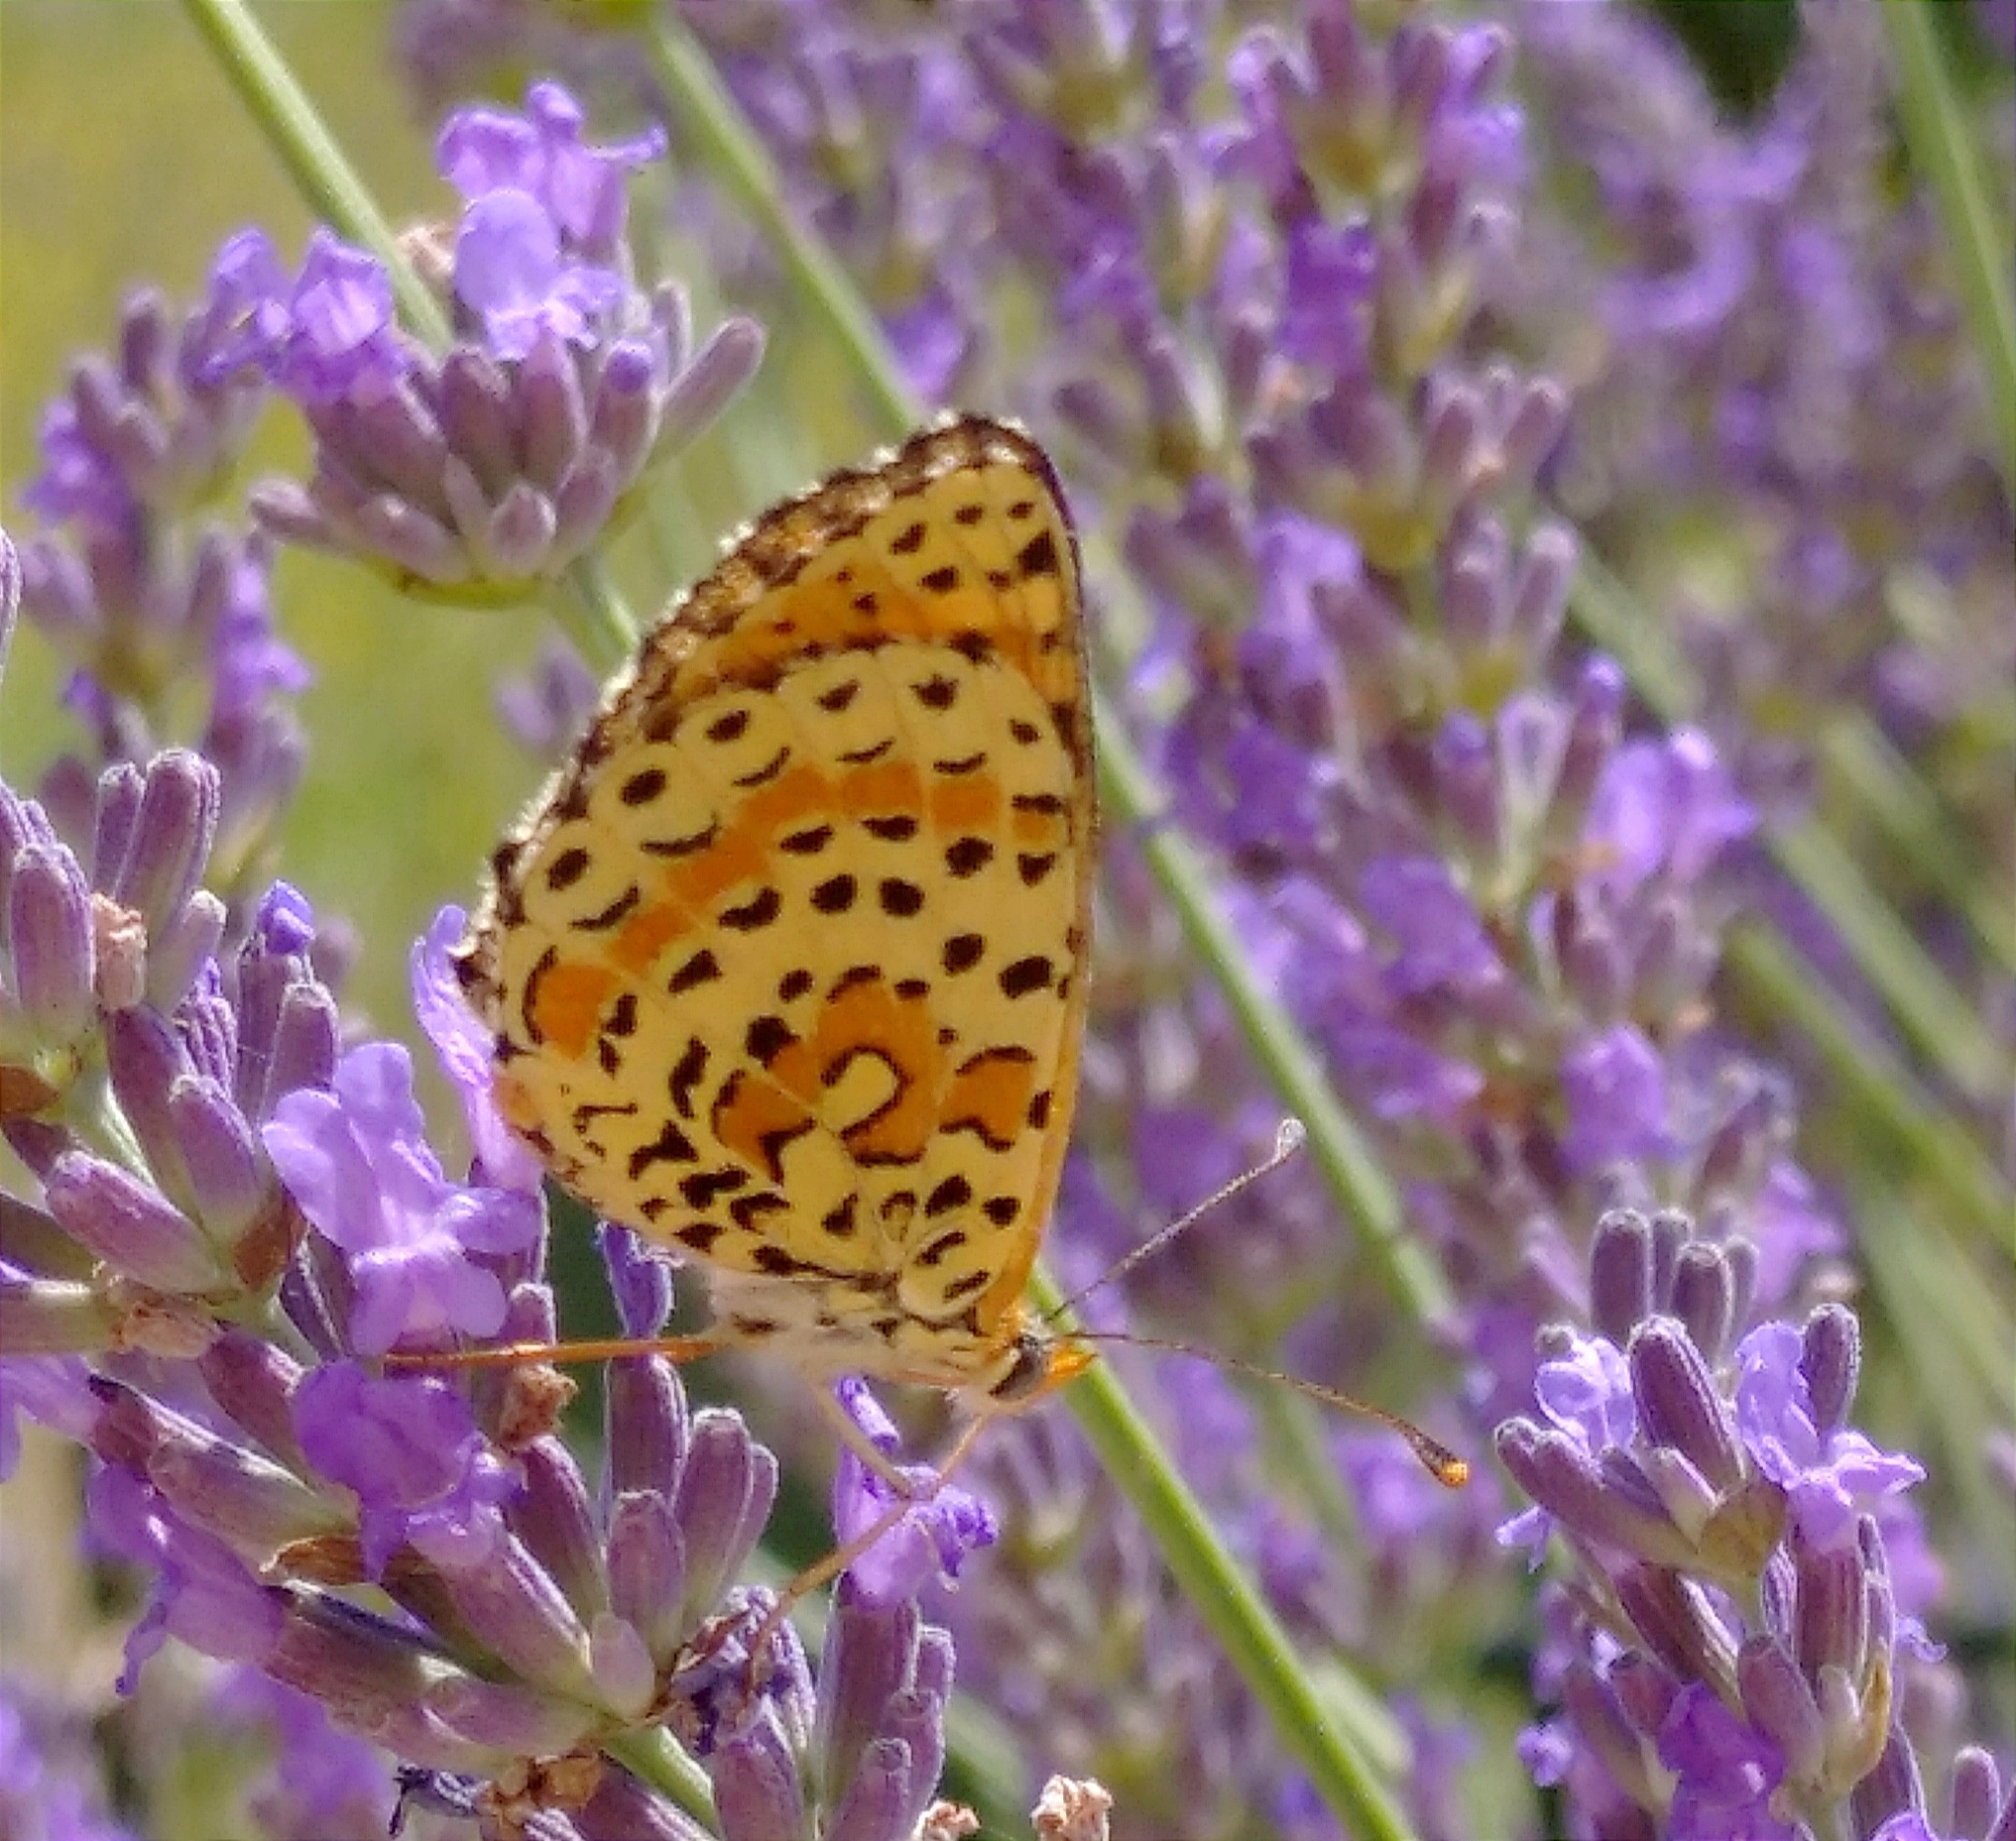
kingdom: Animalia
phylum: Arthropoda
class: Insecta
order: Lepidoptera
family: Nymphalidae
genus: Melitaea
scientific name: Melitaea didyma
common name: Spotted fritillary
